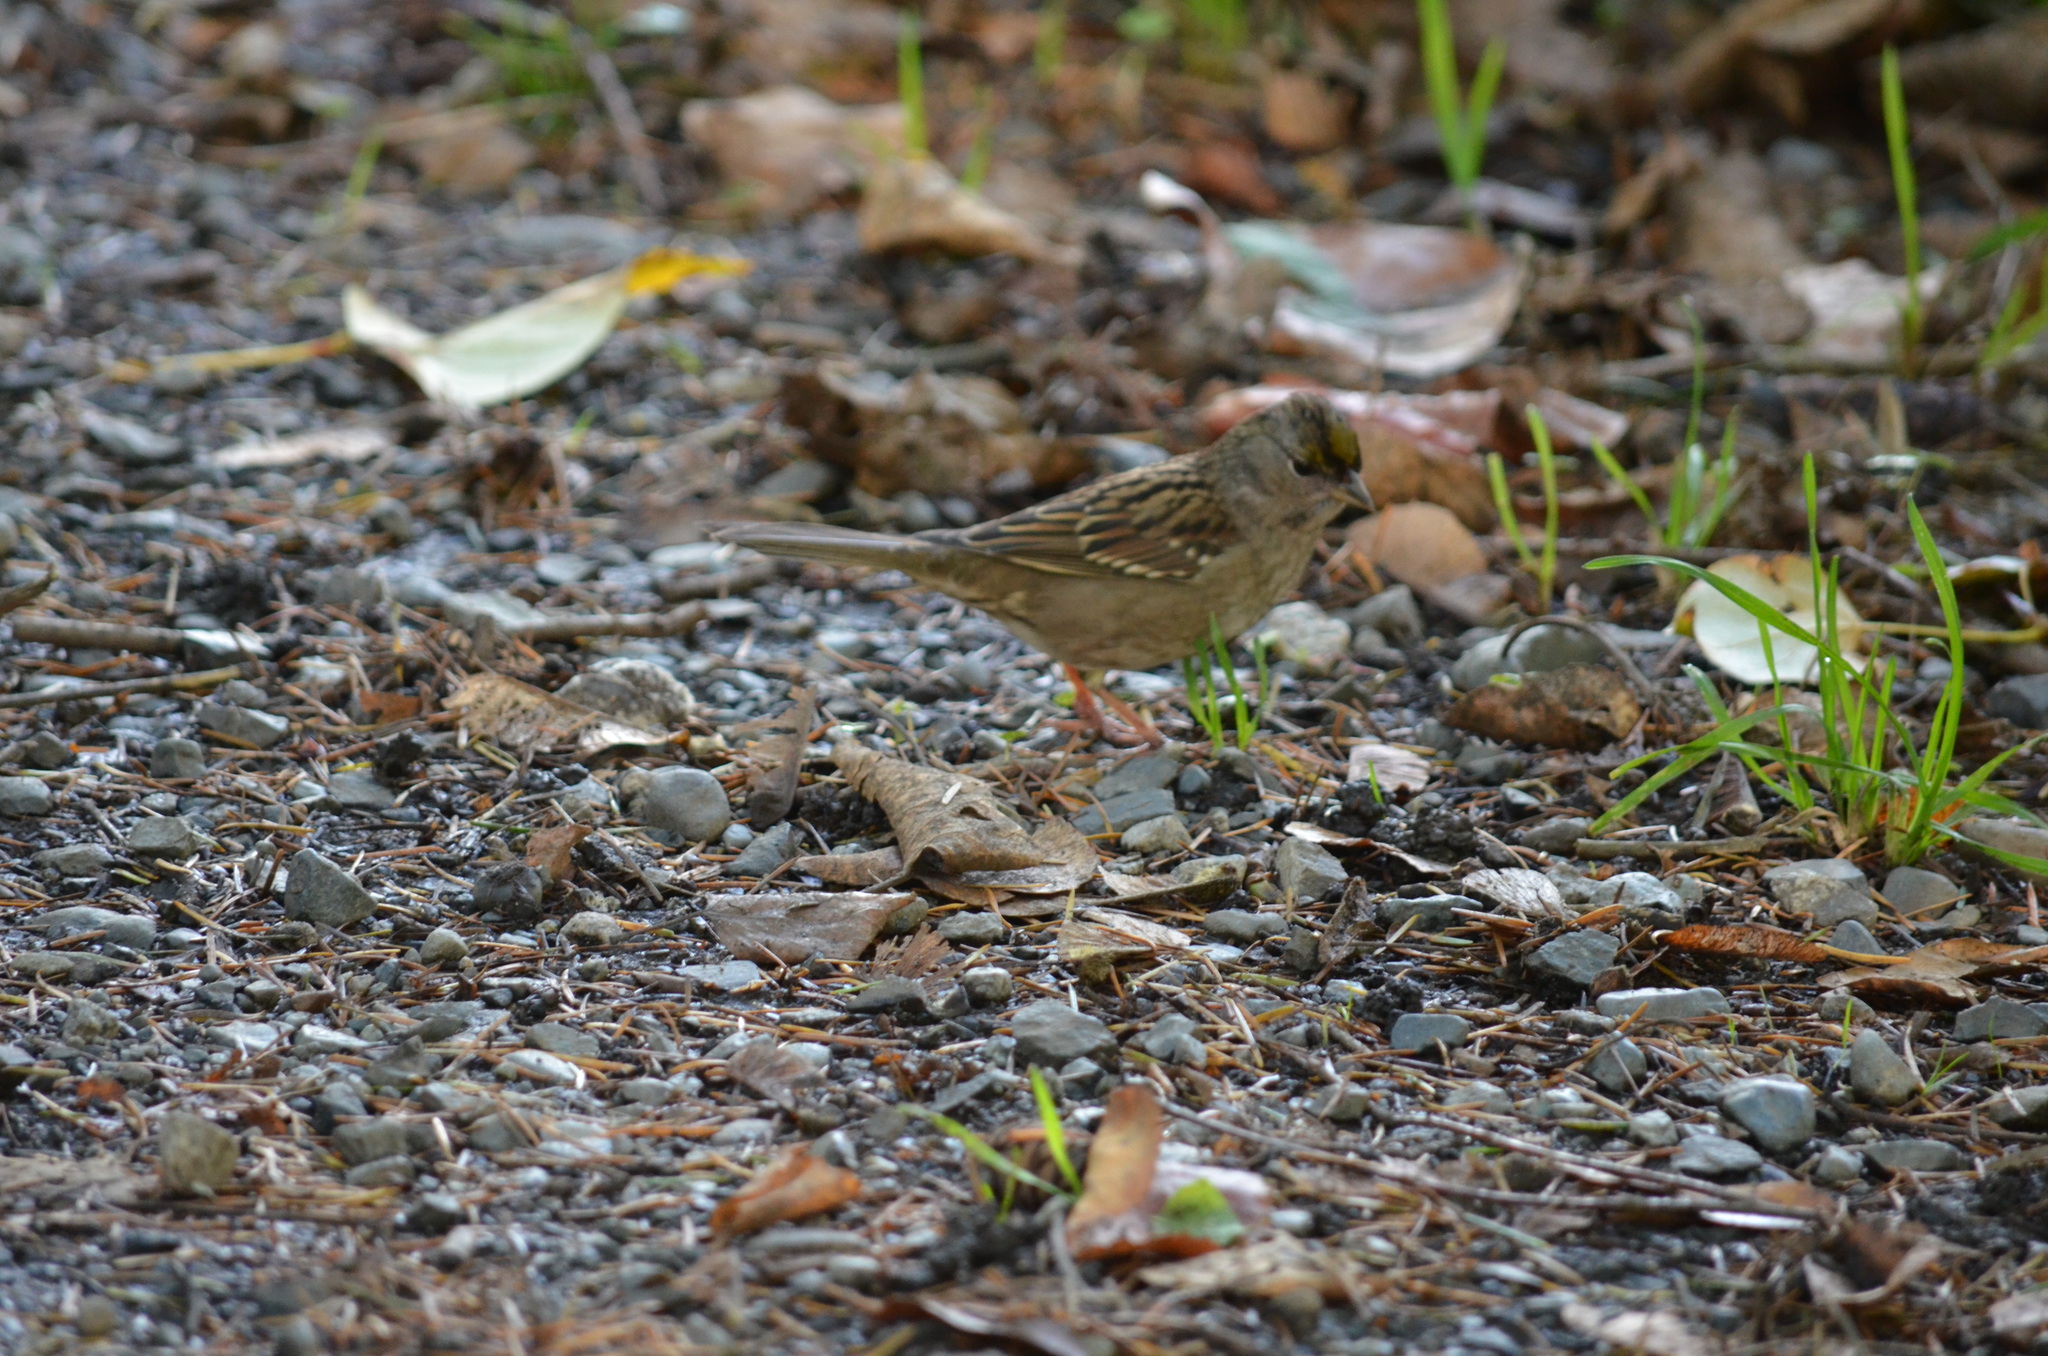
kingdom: Animalia
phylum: Chordata
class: Aves
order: Passeriformes
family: Passerellidae
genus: Zonotrichia
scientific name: Zonotrichia atricapilla
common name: Golden-crowned sparrow
